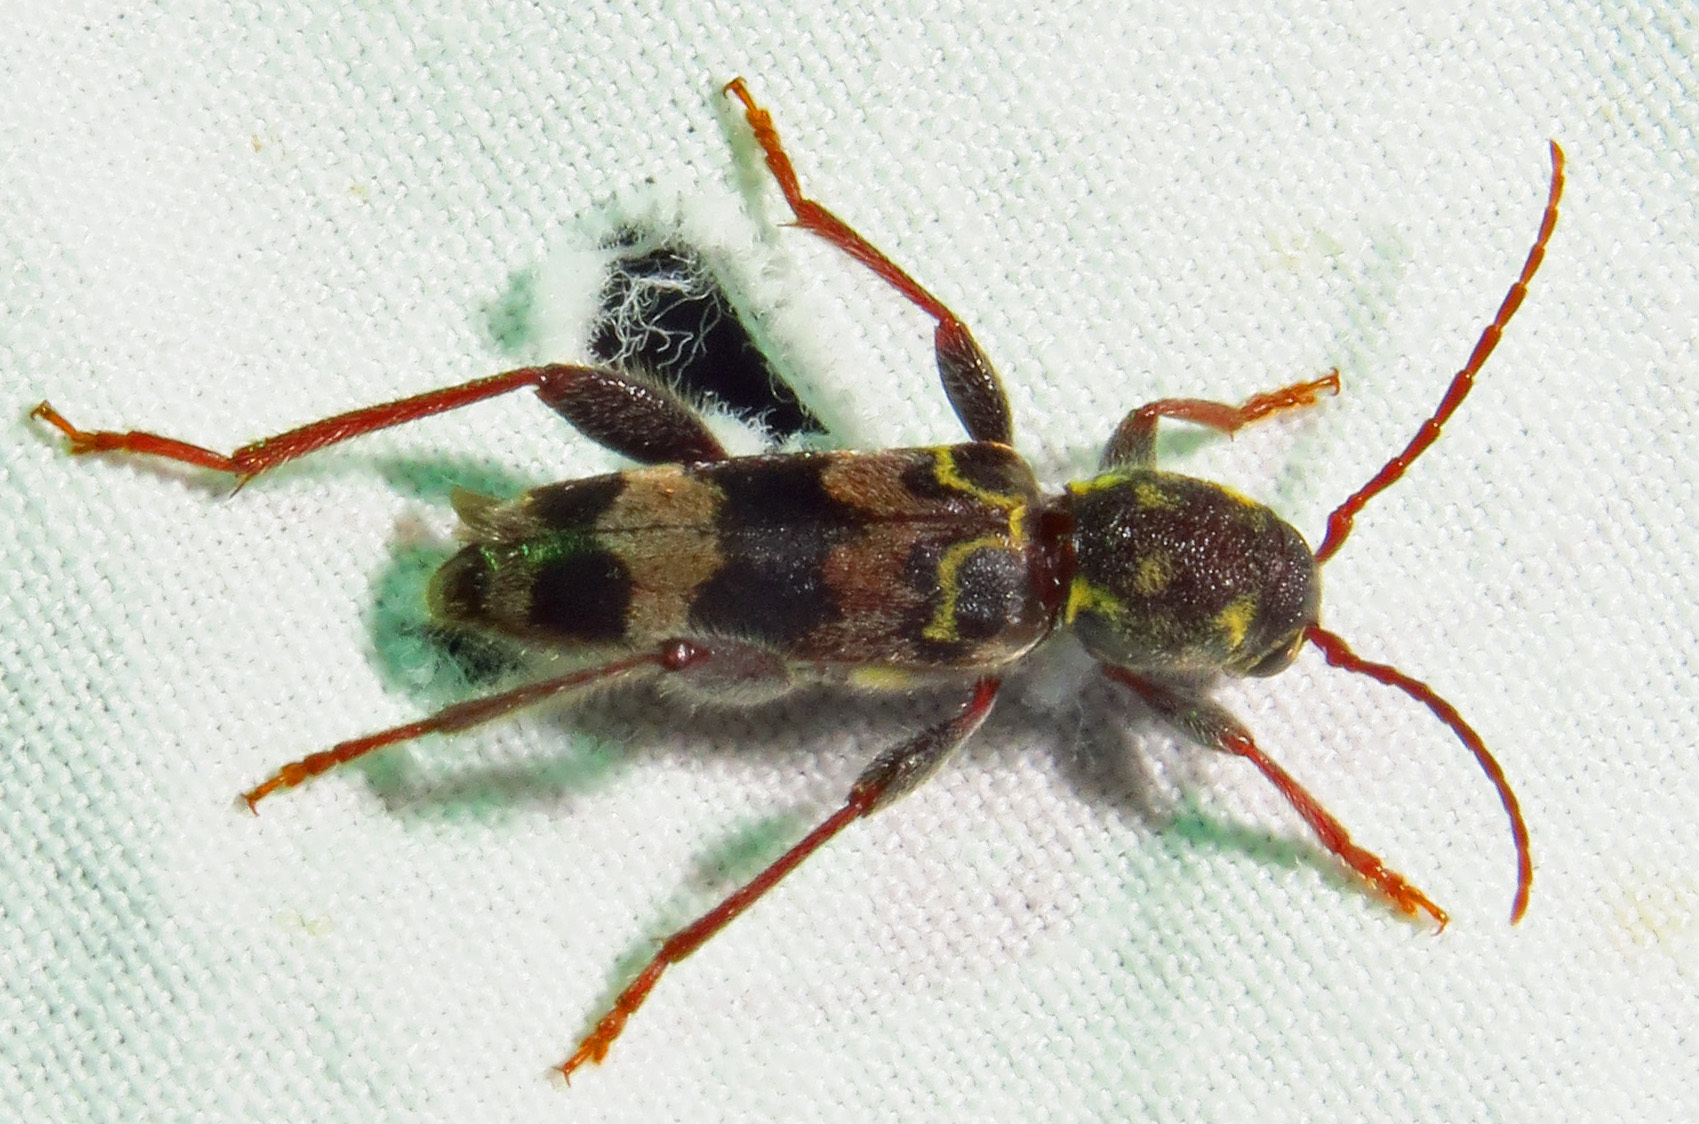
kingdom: Animalia
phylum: Arthropoda
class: Insecta
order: Coleoptera
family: Cerambycidae
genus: Xylotrechus
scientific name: Xylotrechus colonus
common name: Long-horned beetle
